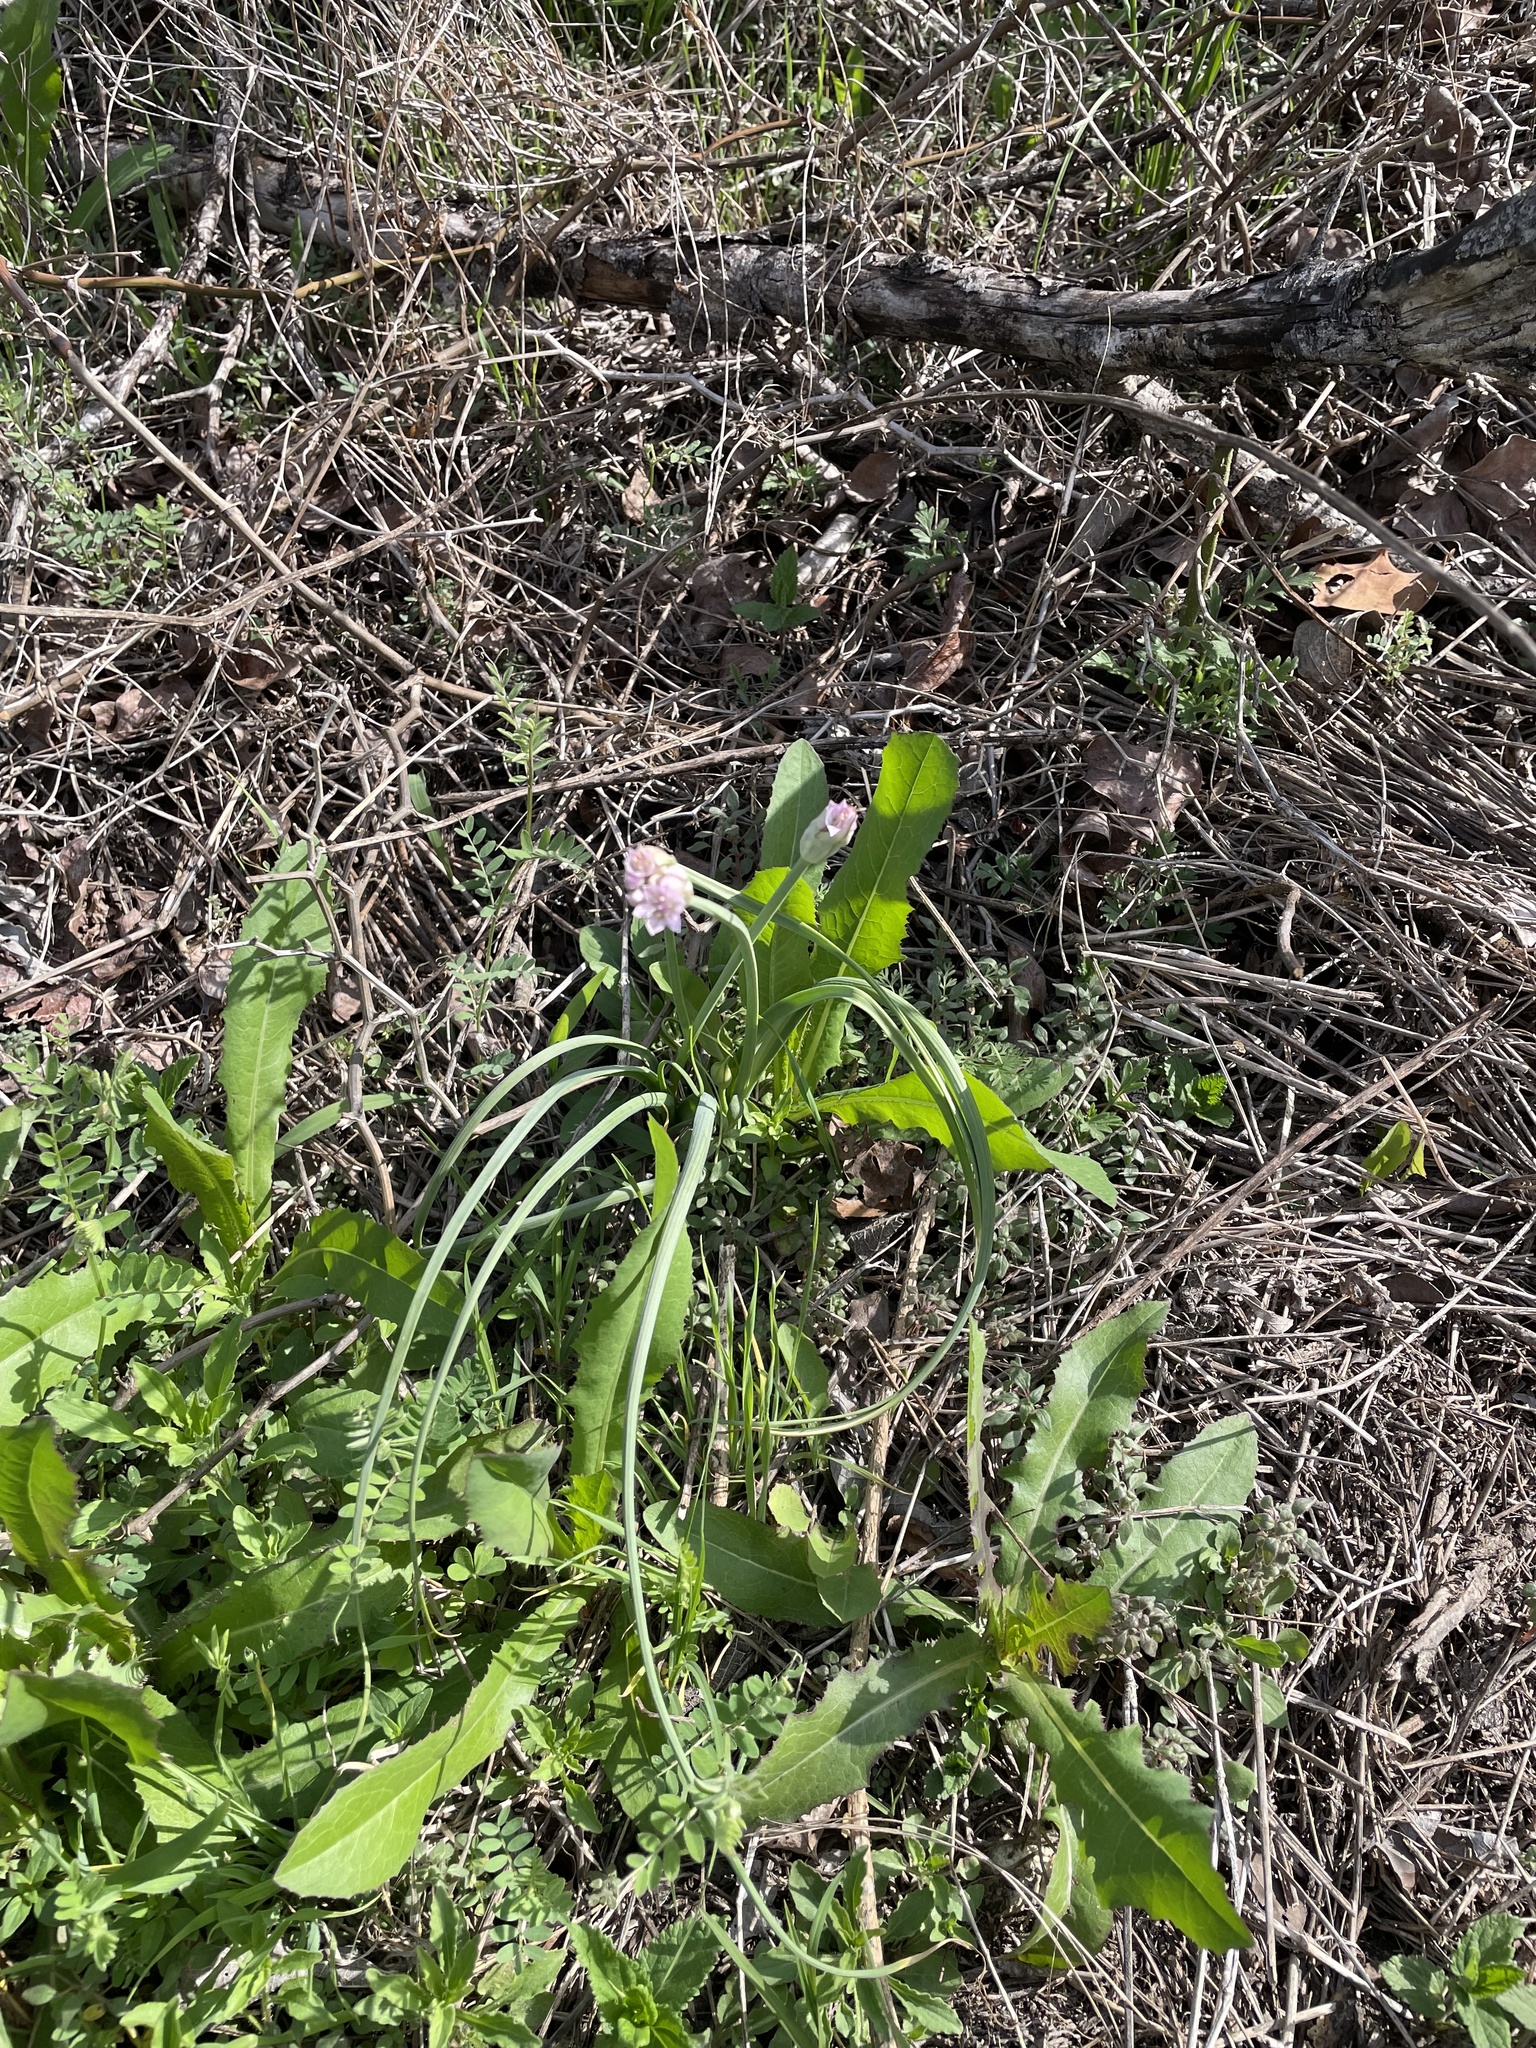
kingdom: Plantae
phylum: Tracheophyta
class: Liliopsida
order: Asparagales
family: Amaryllidaceae
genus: Allium
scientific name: Allium drummondii
